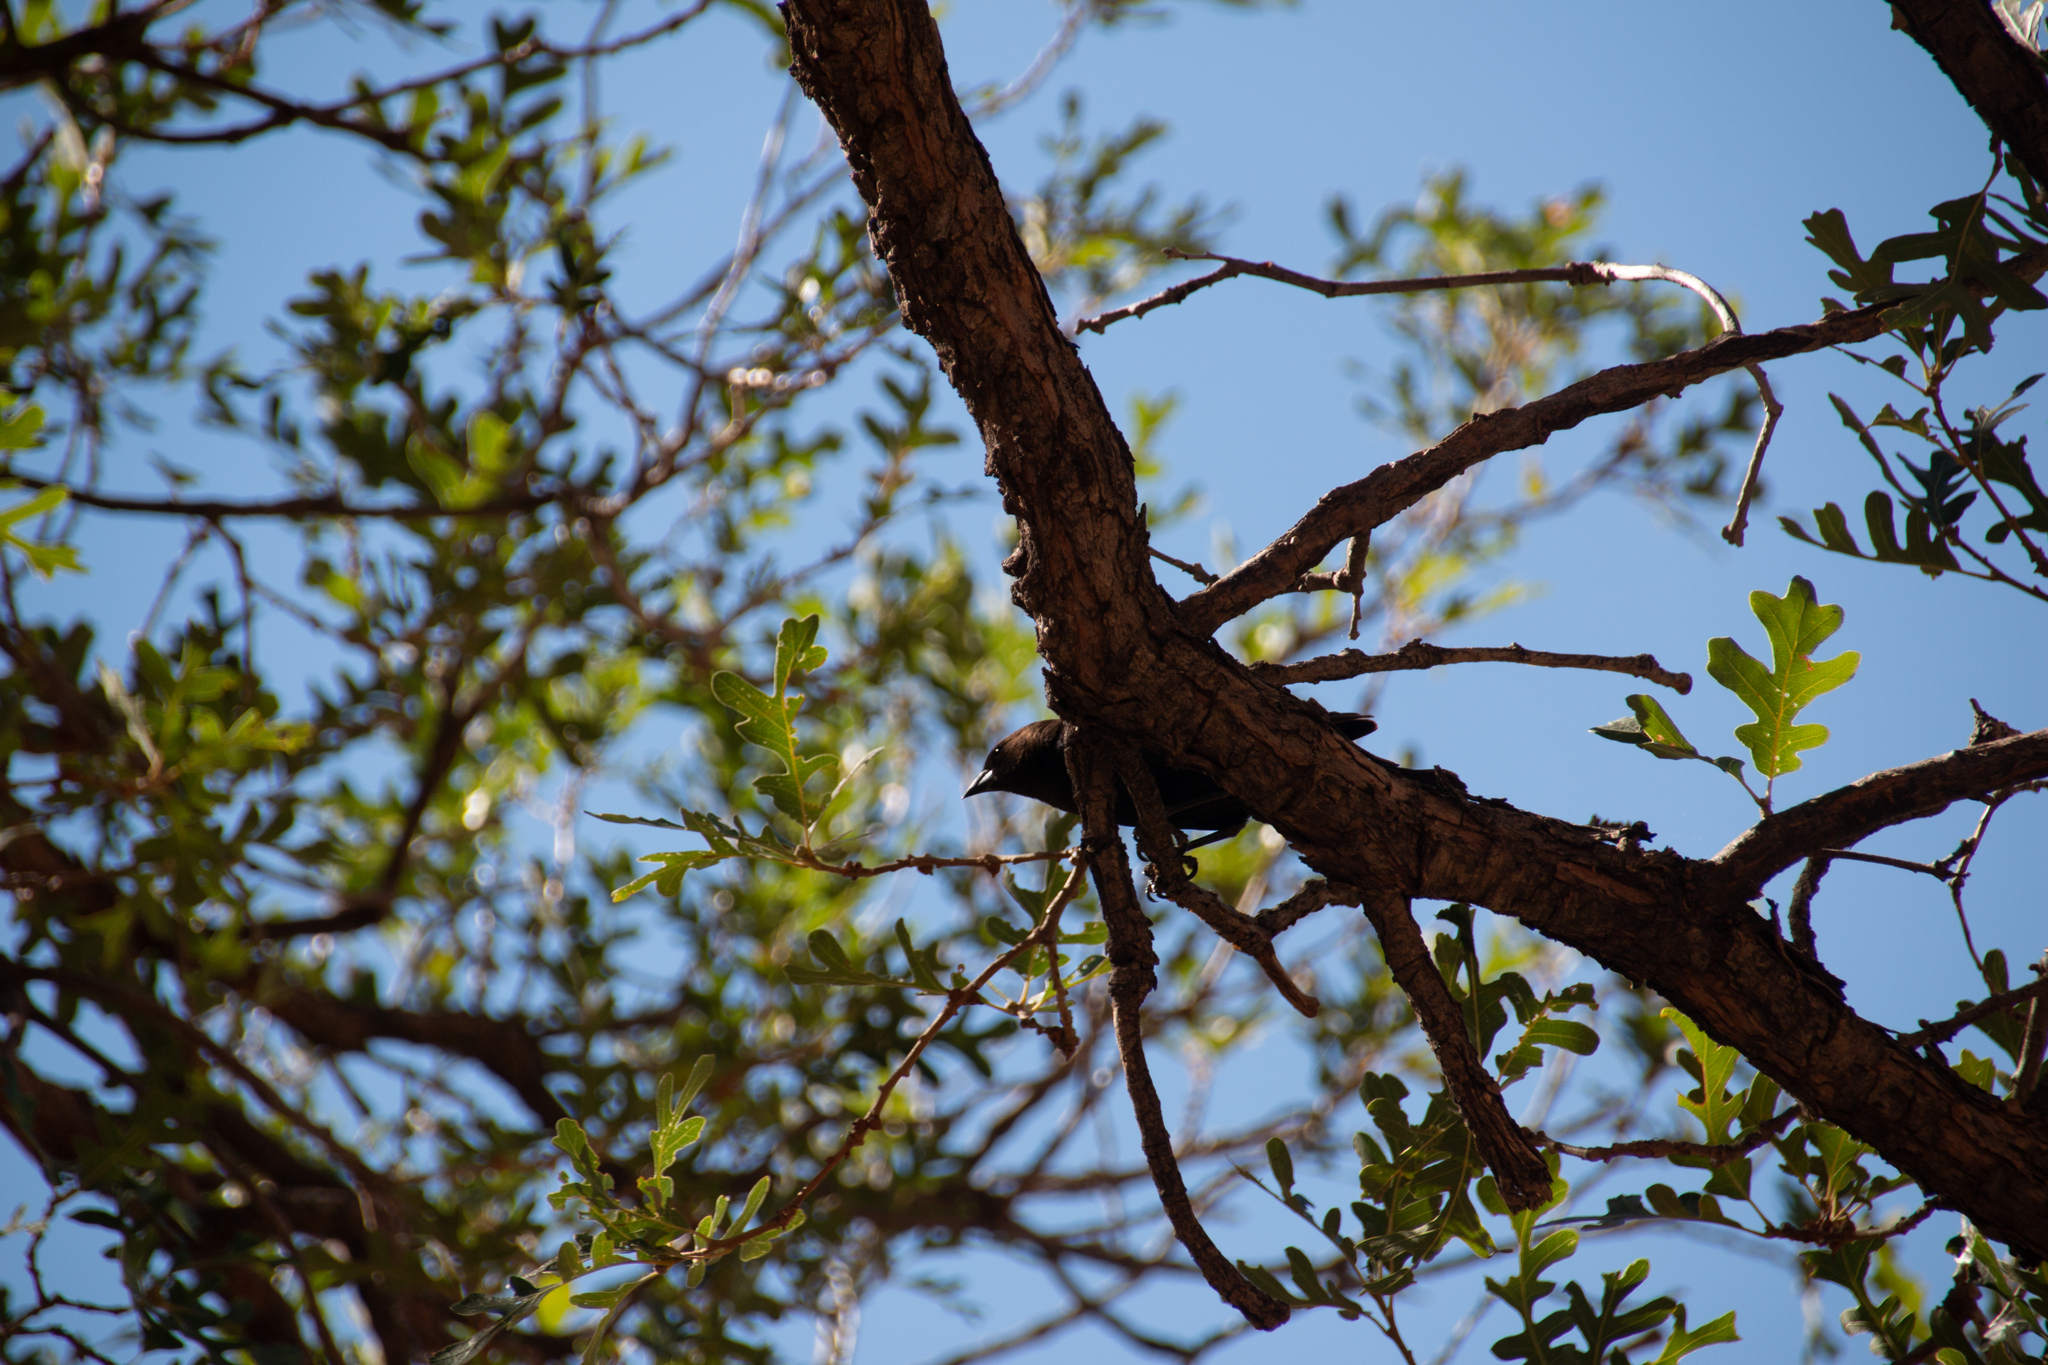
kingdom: Animalia
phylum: Chordata
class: Aves
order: Passeriformes
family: Icteridae
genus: Molothrus
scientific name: Molothrus ater
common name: Brown-headed cowbird
